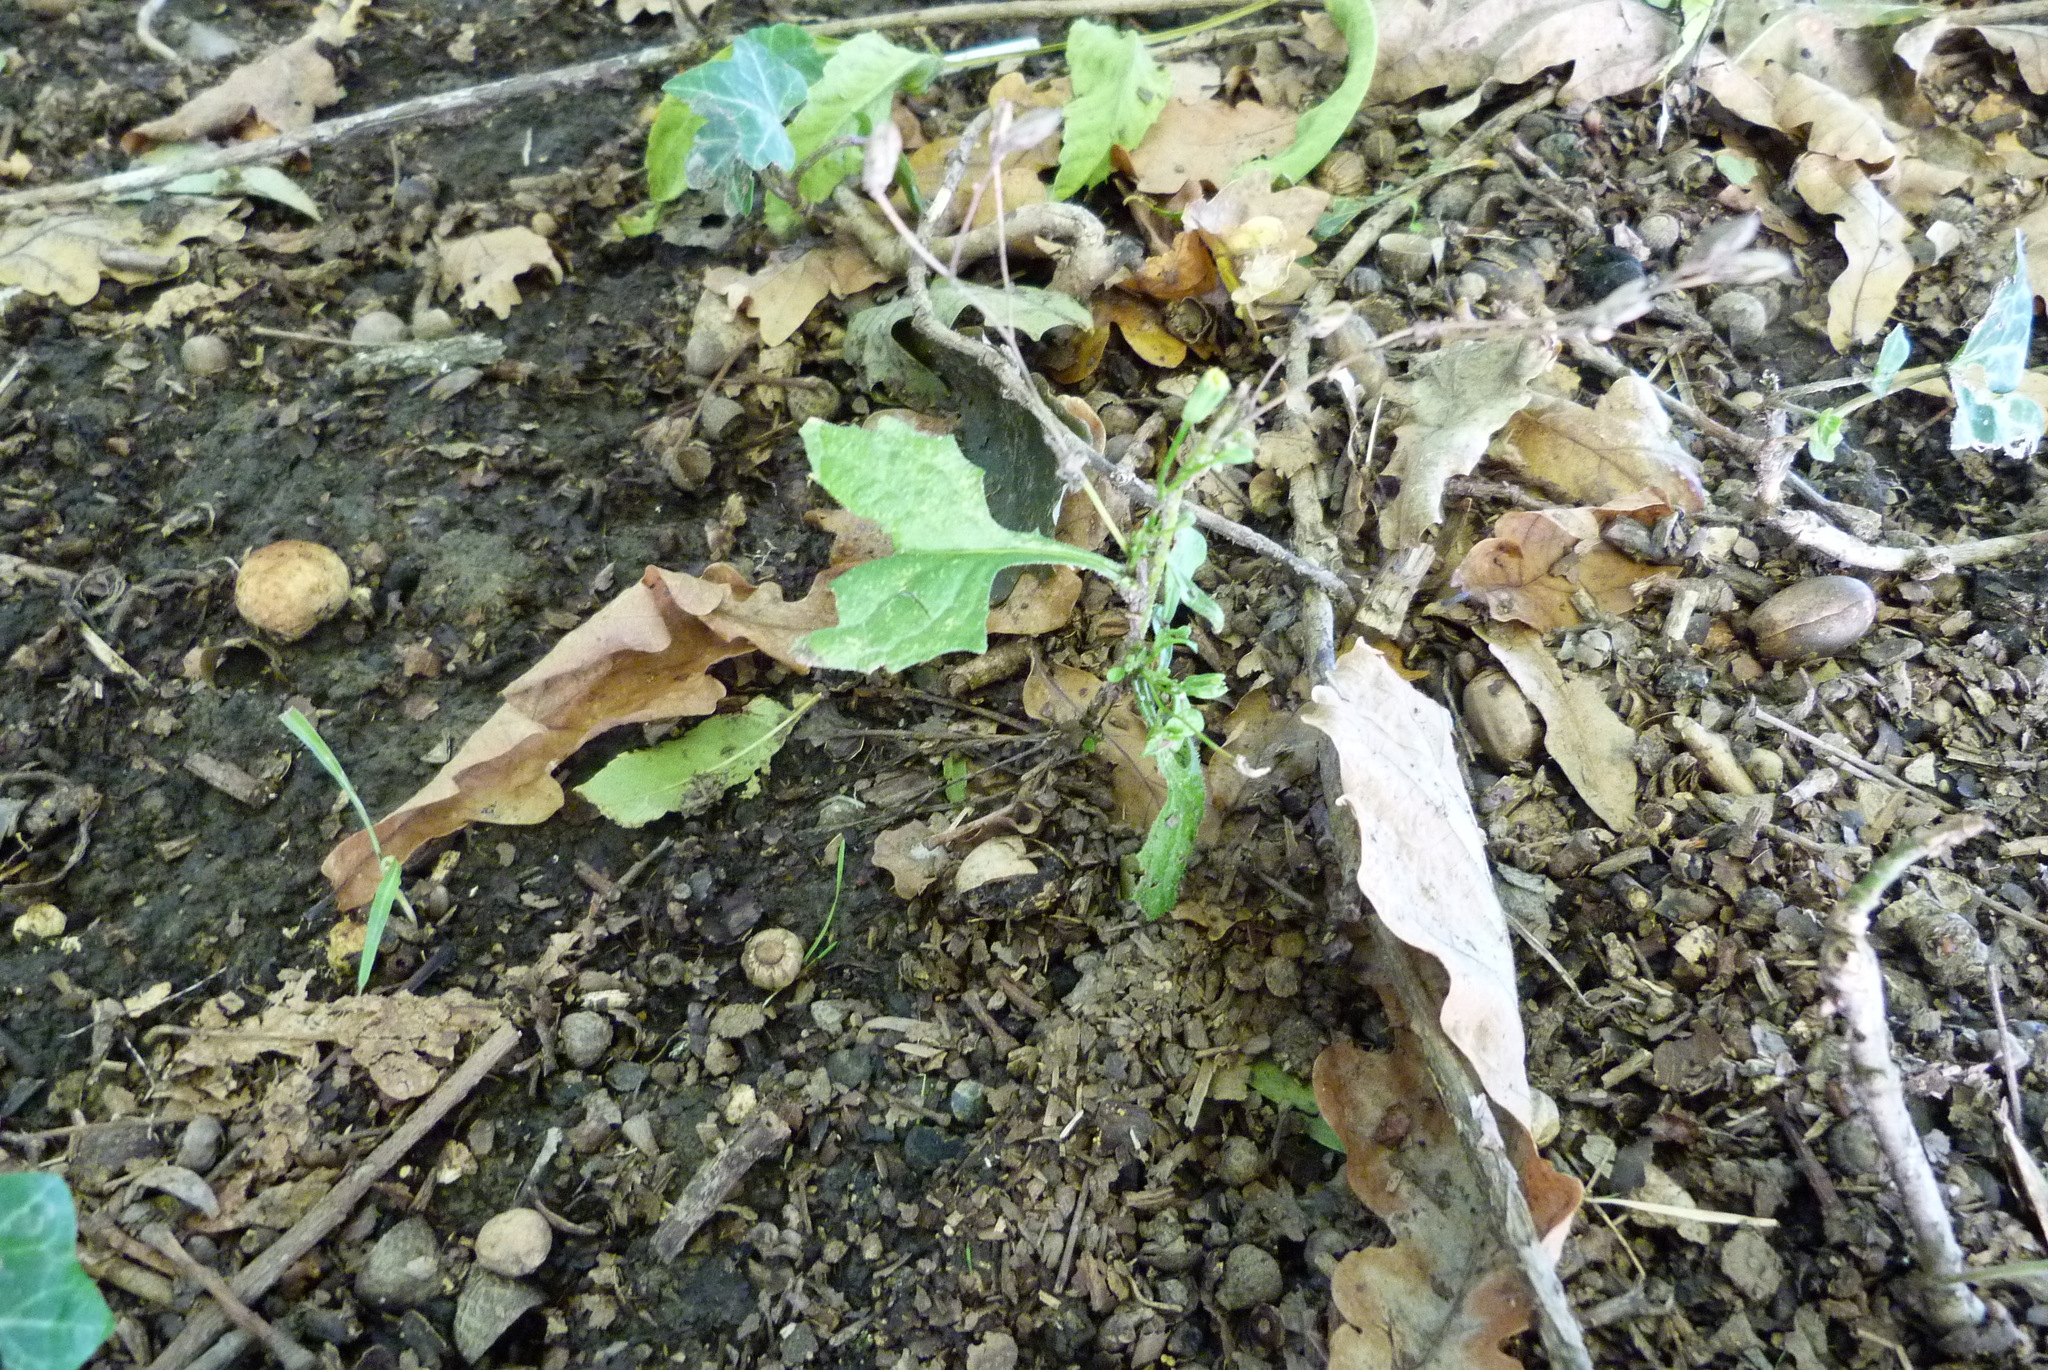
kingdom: Plantae
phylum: Tracheophyta
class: Magnoliopsida
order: Asterales
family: Asteraceae
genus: Lapsana
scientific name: Lapsana communis
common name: Nipplewort
